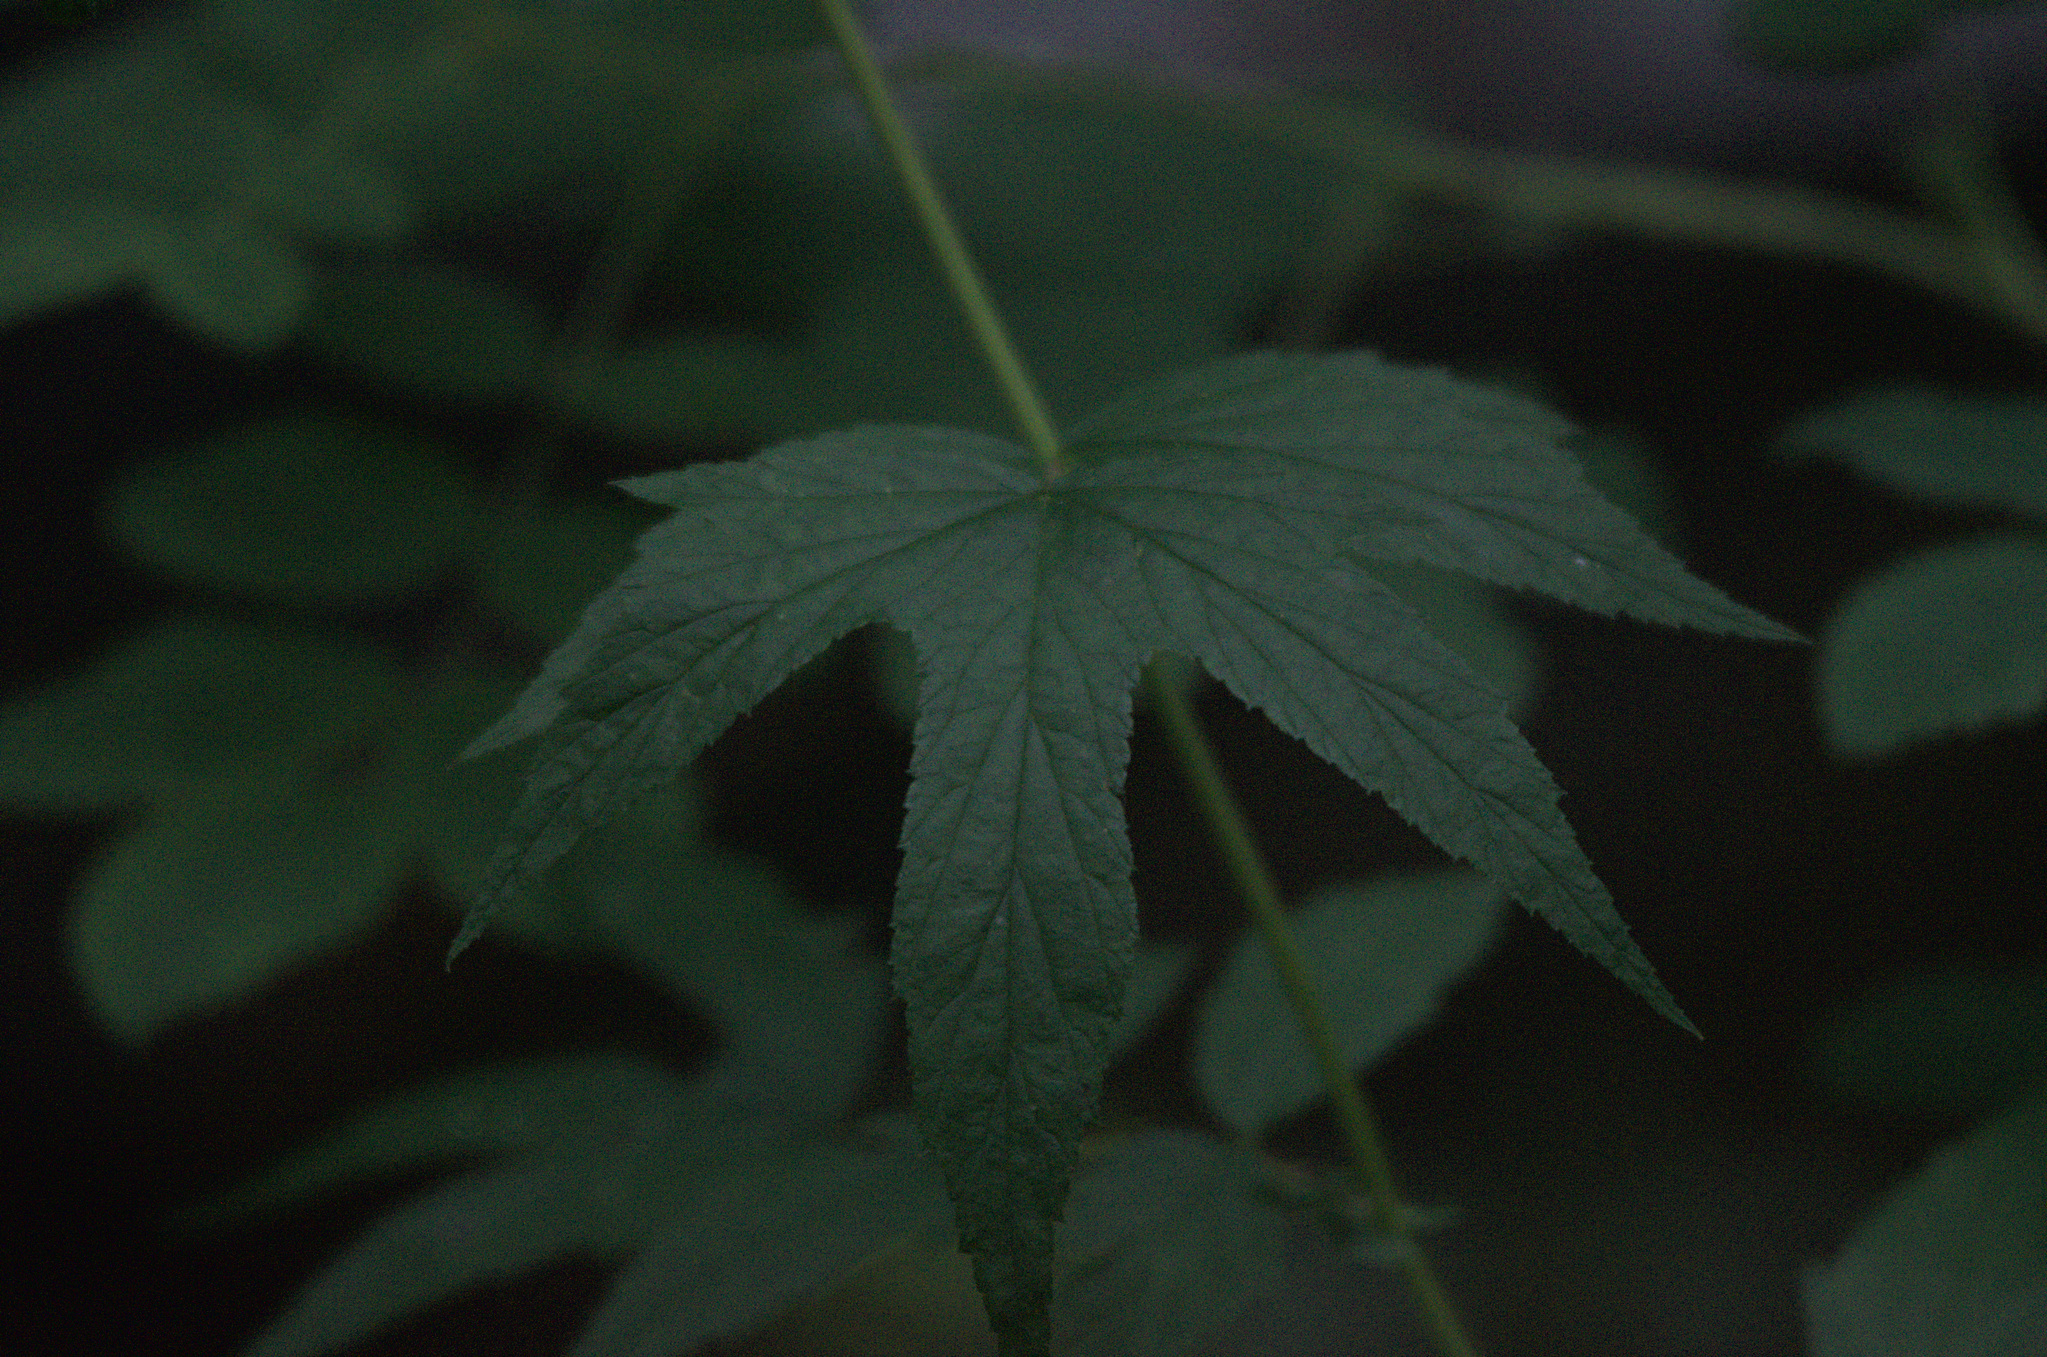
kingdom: Plantae
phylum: Tracheophyta
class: Magnoliopsida
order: Rosales
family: Rosaceae
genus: Filipendula
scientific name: Filipendula ulmaria
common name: Meadowsweet
